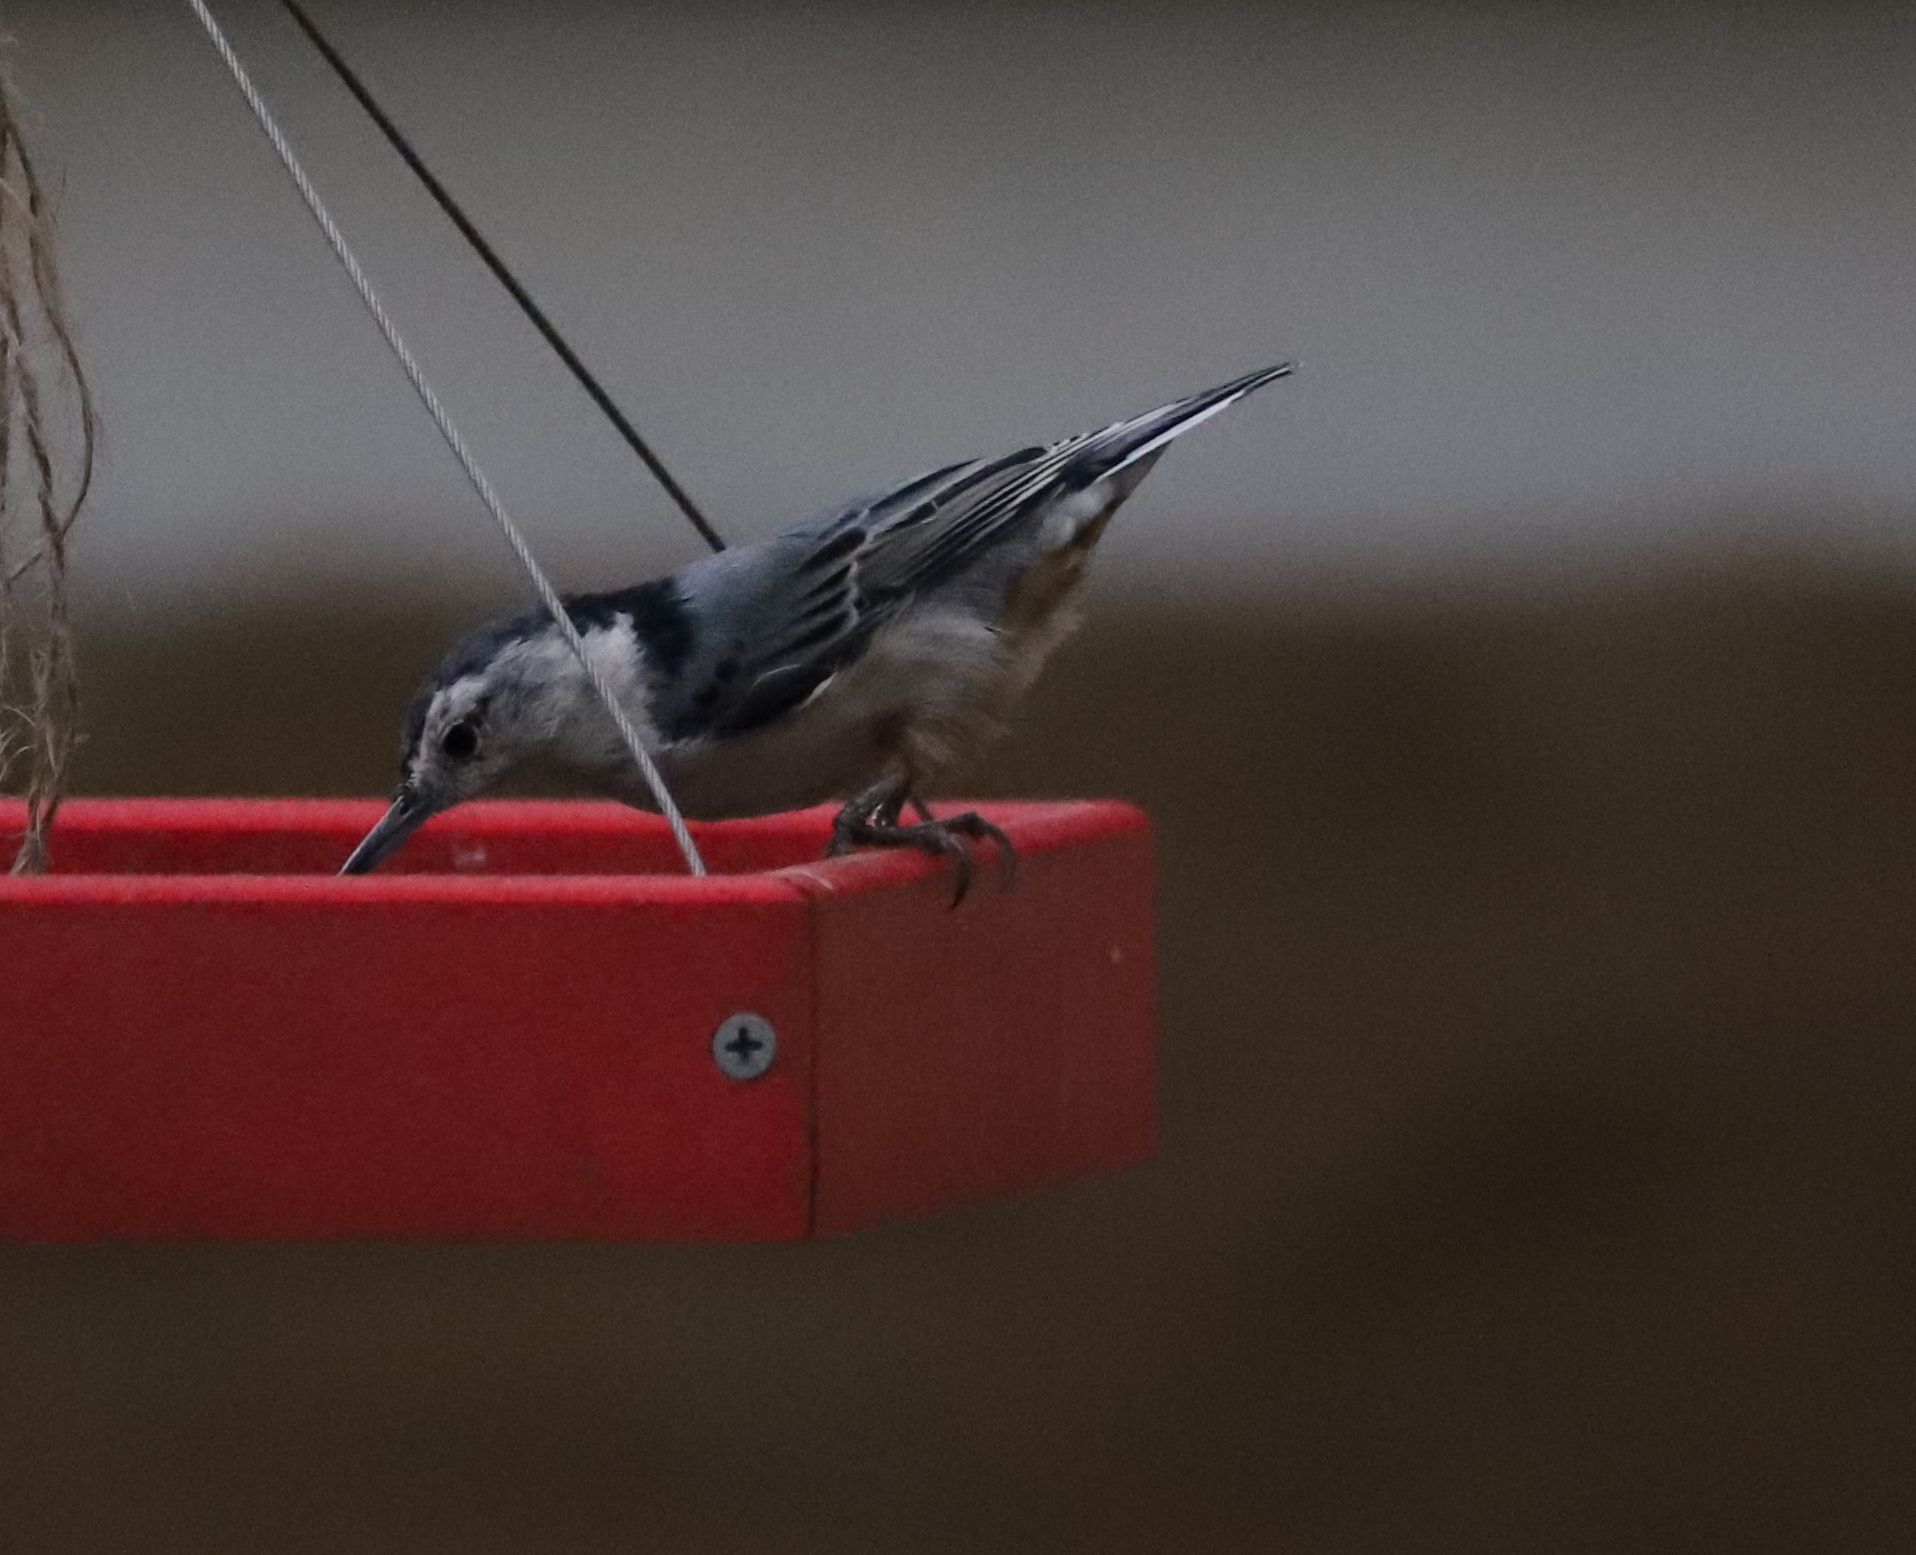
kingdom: Animalia
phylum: Chordata
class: Aves
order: Passeriformes
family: Sittidae
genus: Sitta
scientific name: Sitta carolinensis
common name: White-breasted nuthatch
